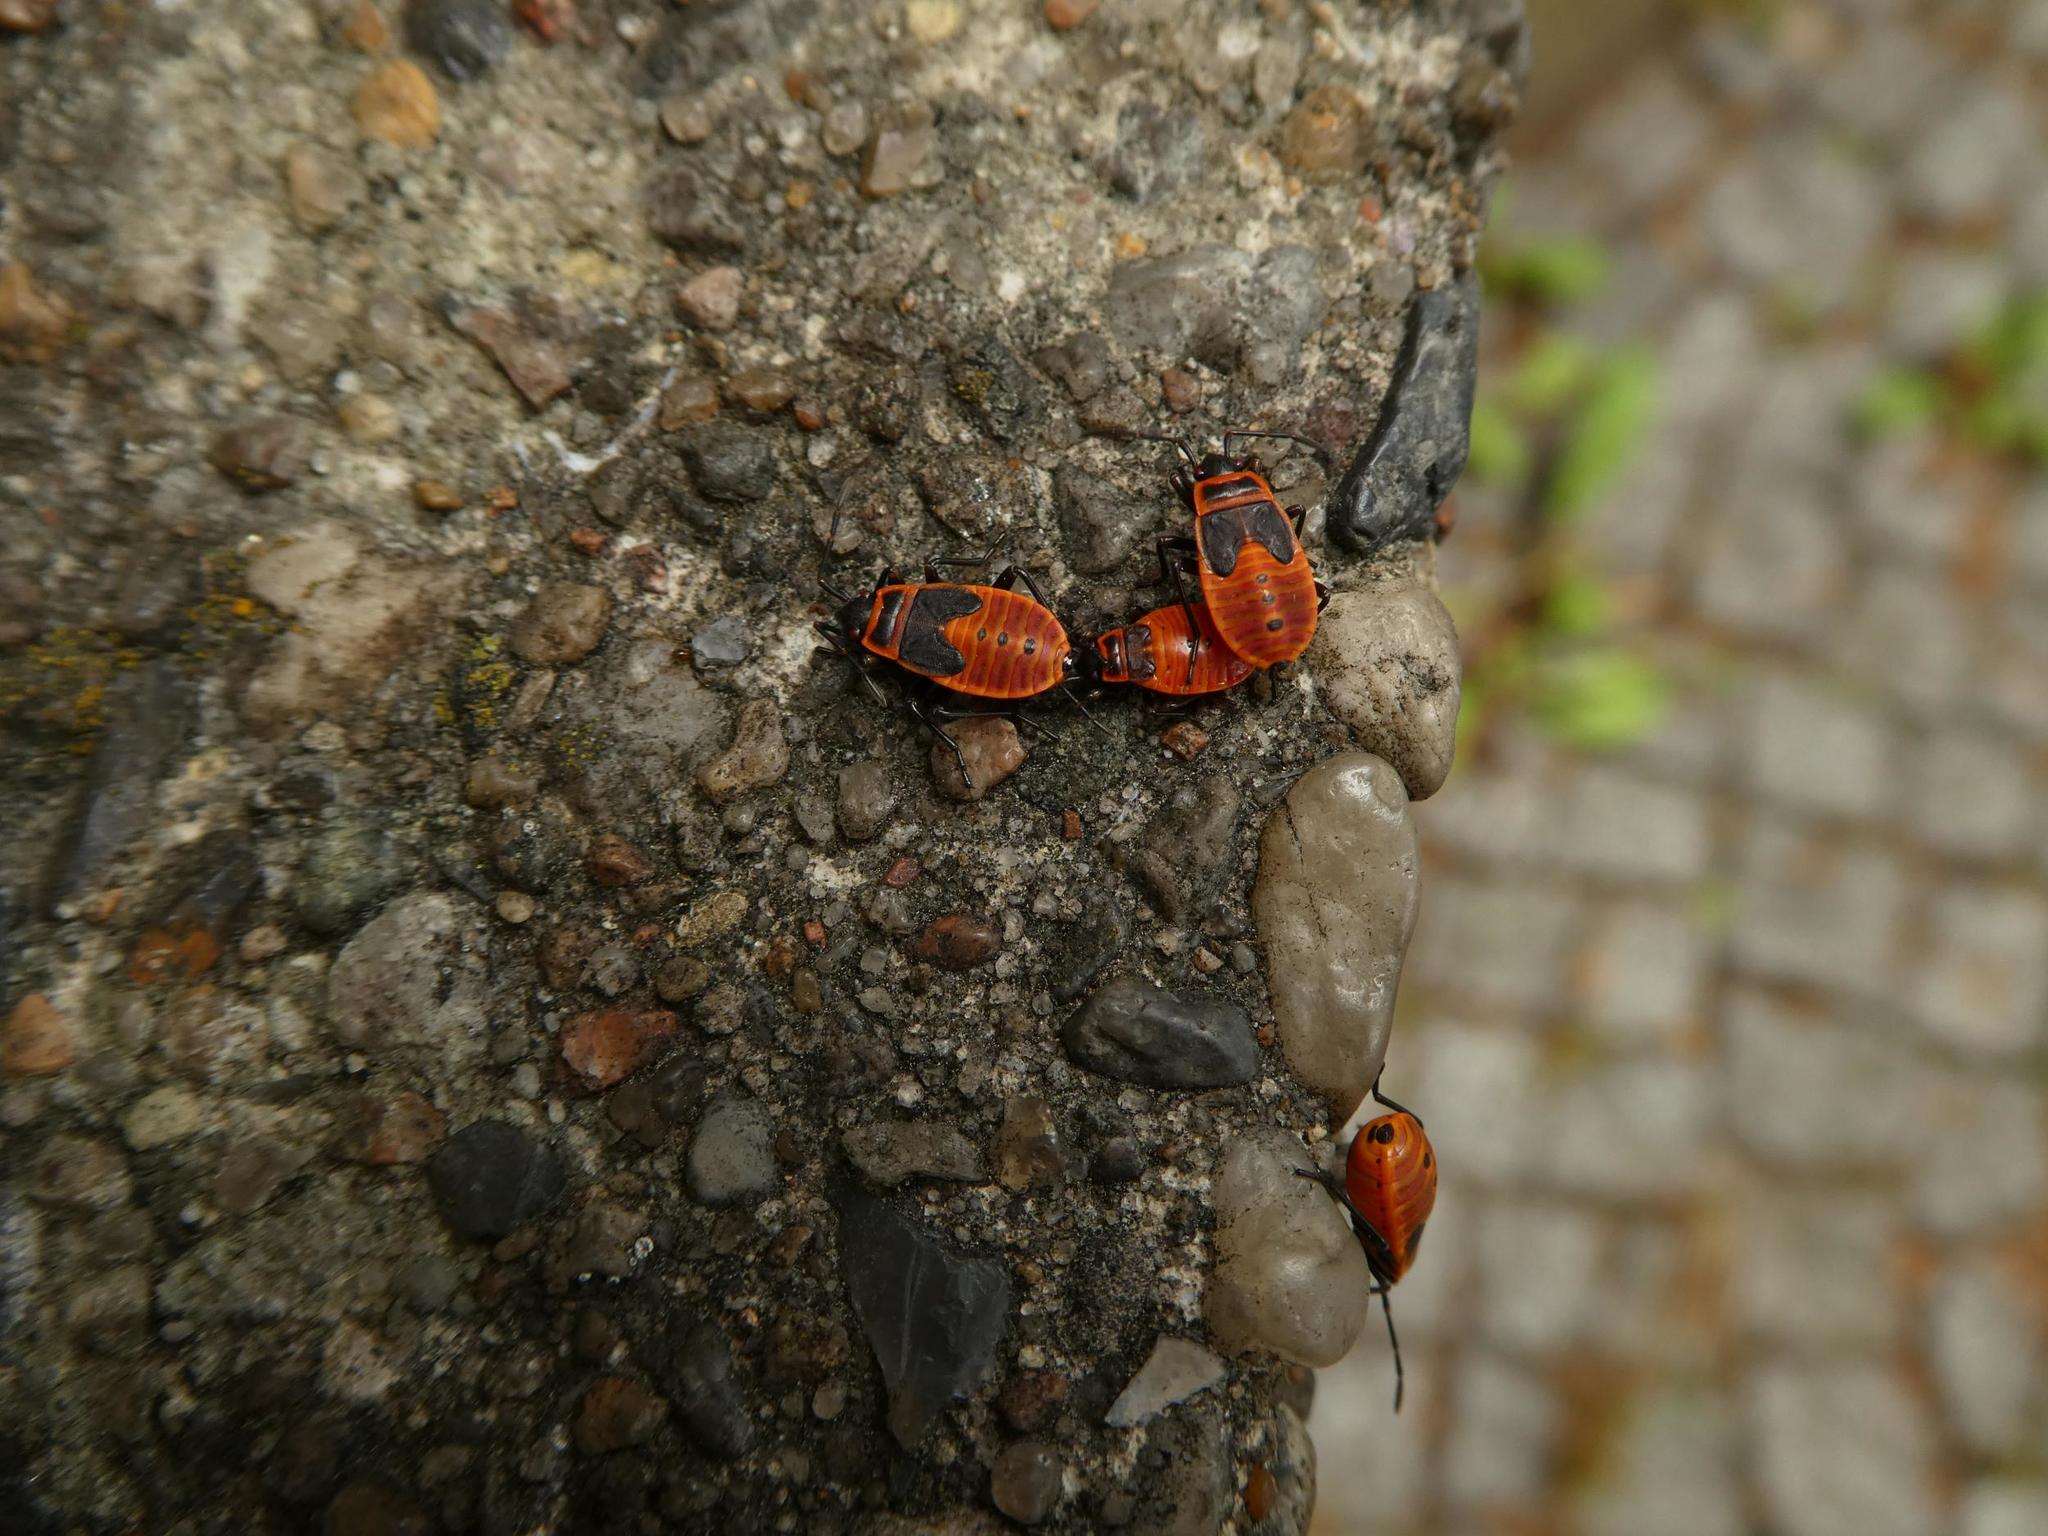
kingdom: Animalia
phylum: Arthropoda
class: Insecta
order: Hemiptera
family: Pyrrhocoridae
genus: Pyrrhocoris
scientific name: Pyrrhocoris apterus
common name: Firebug
